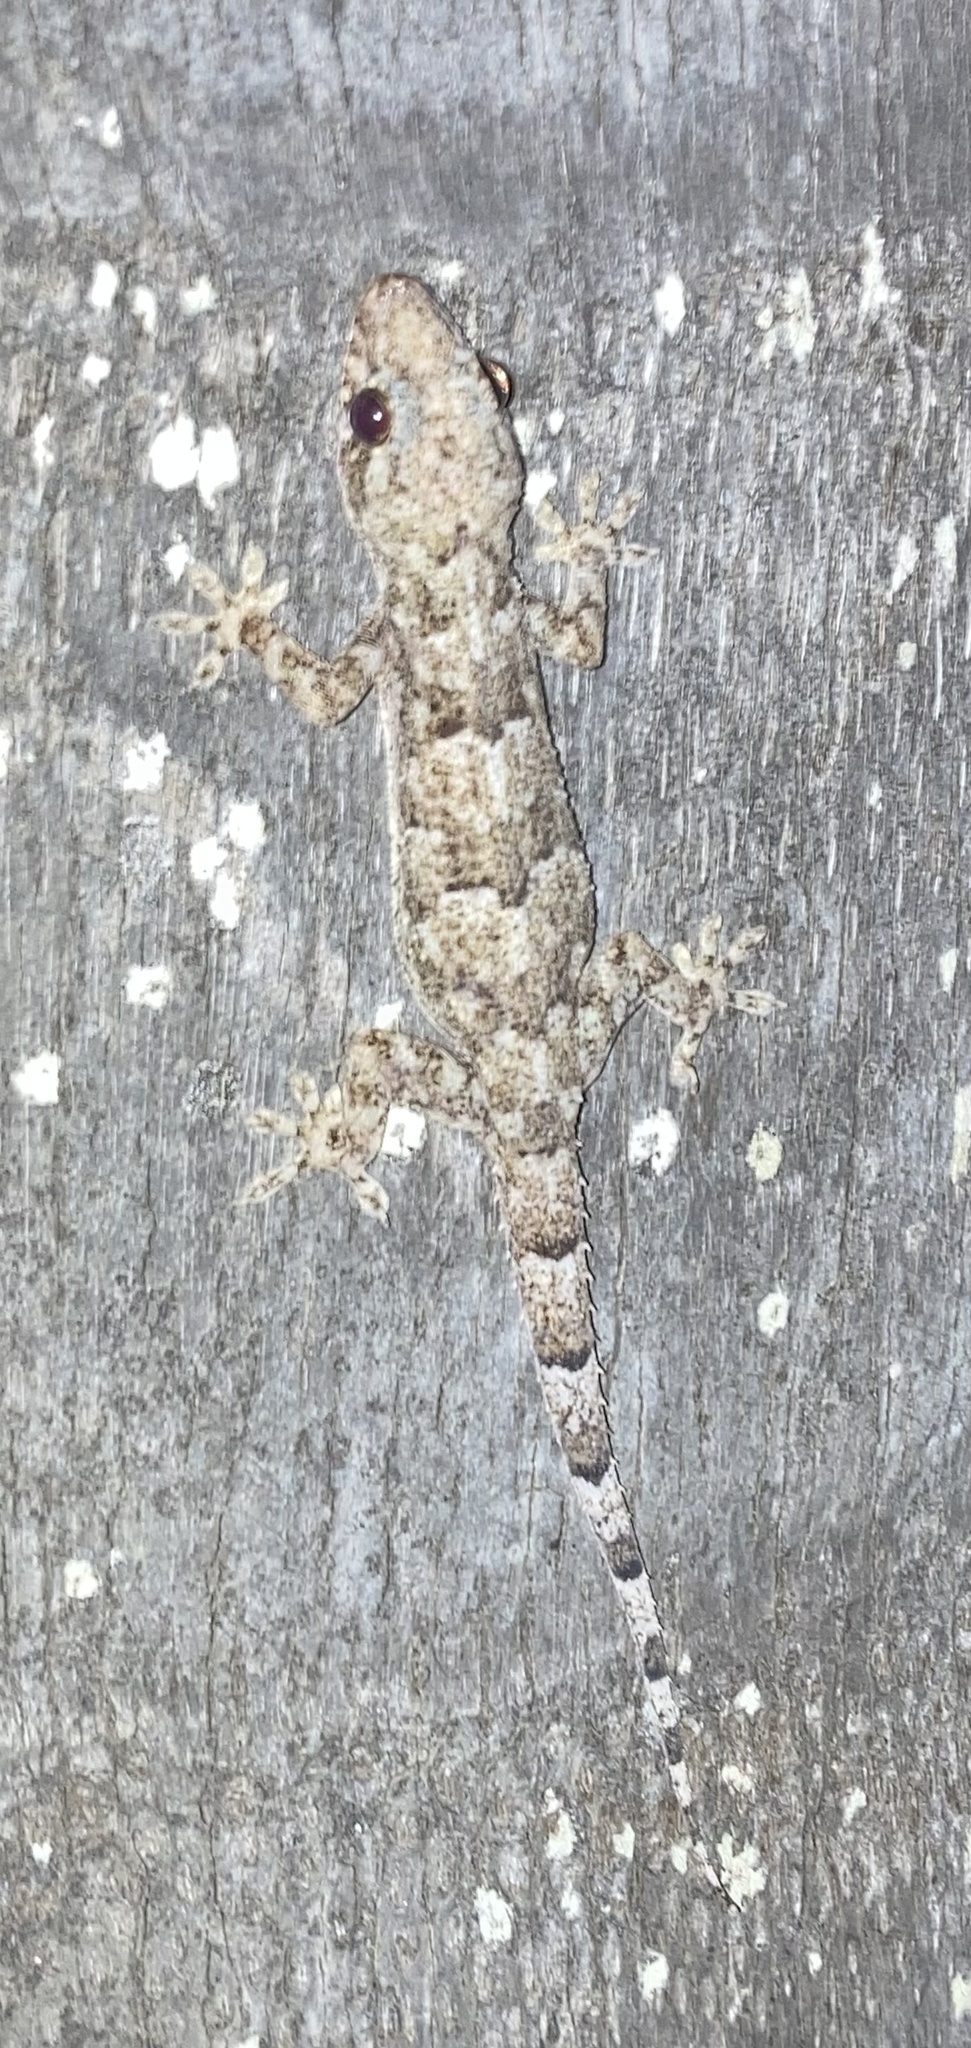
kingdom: Animalia
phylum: Chordata
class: Squamata
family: Gekkonidae
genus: Hemidactylus
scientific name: Hemidactylus mabouia
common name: House gecko
